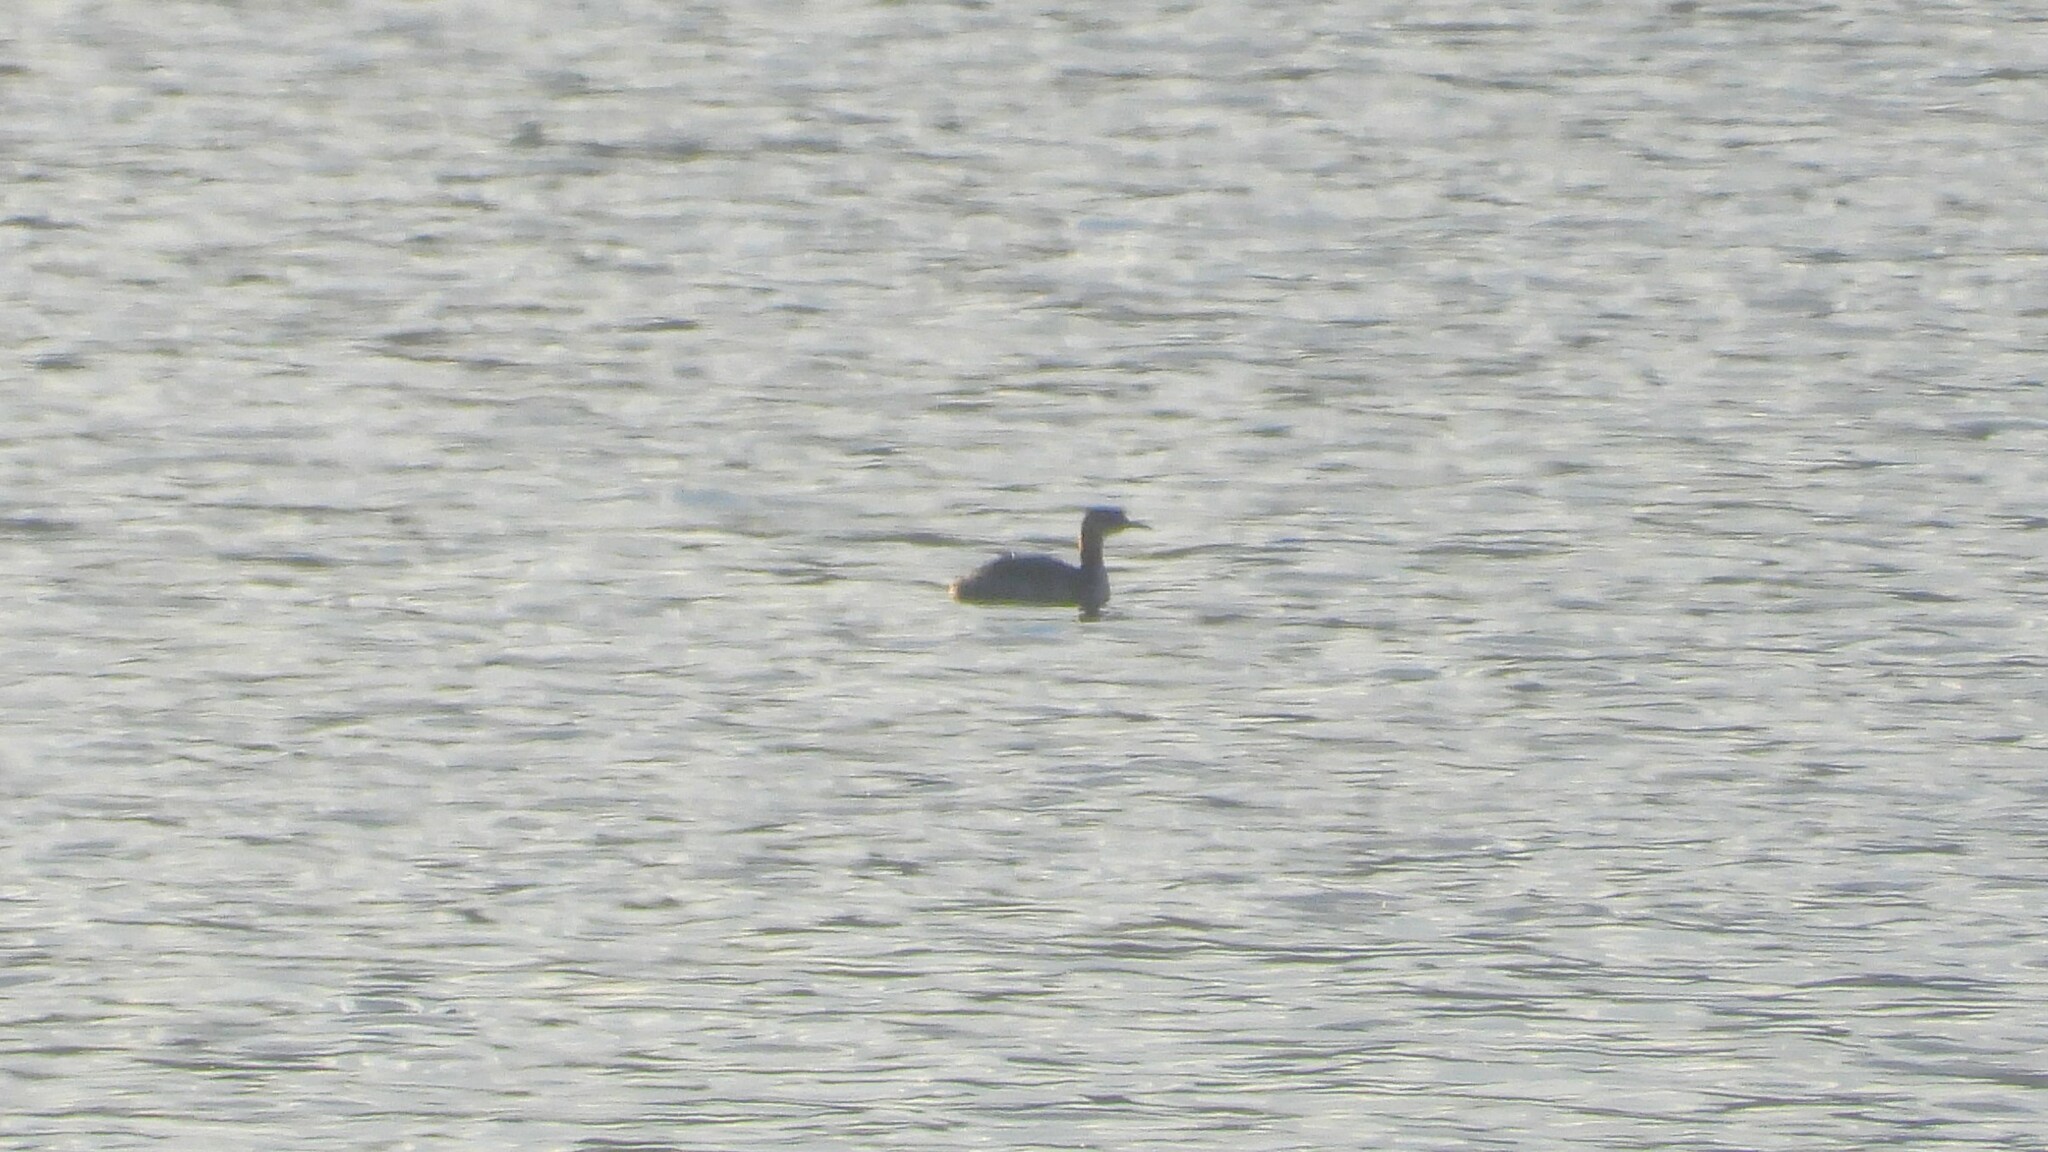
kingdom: Animalia
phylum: Chordata
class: Aves
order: Podicipediformes
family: Podicipedidae
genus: Podiceps
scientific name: Podiceps grisegena
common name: Red-necked grebe
